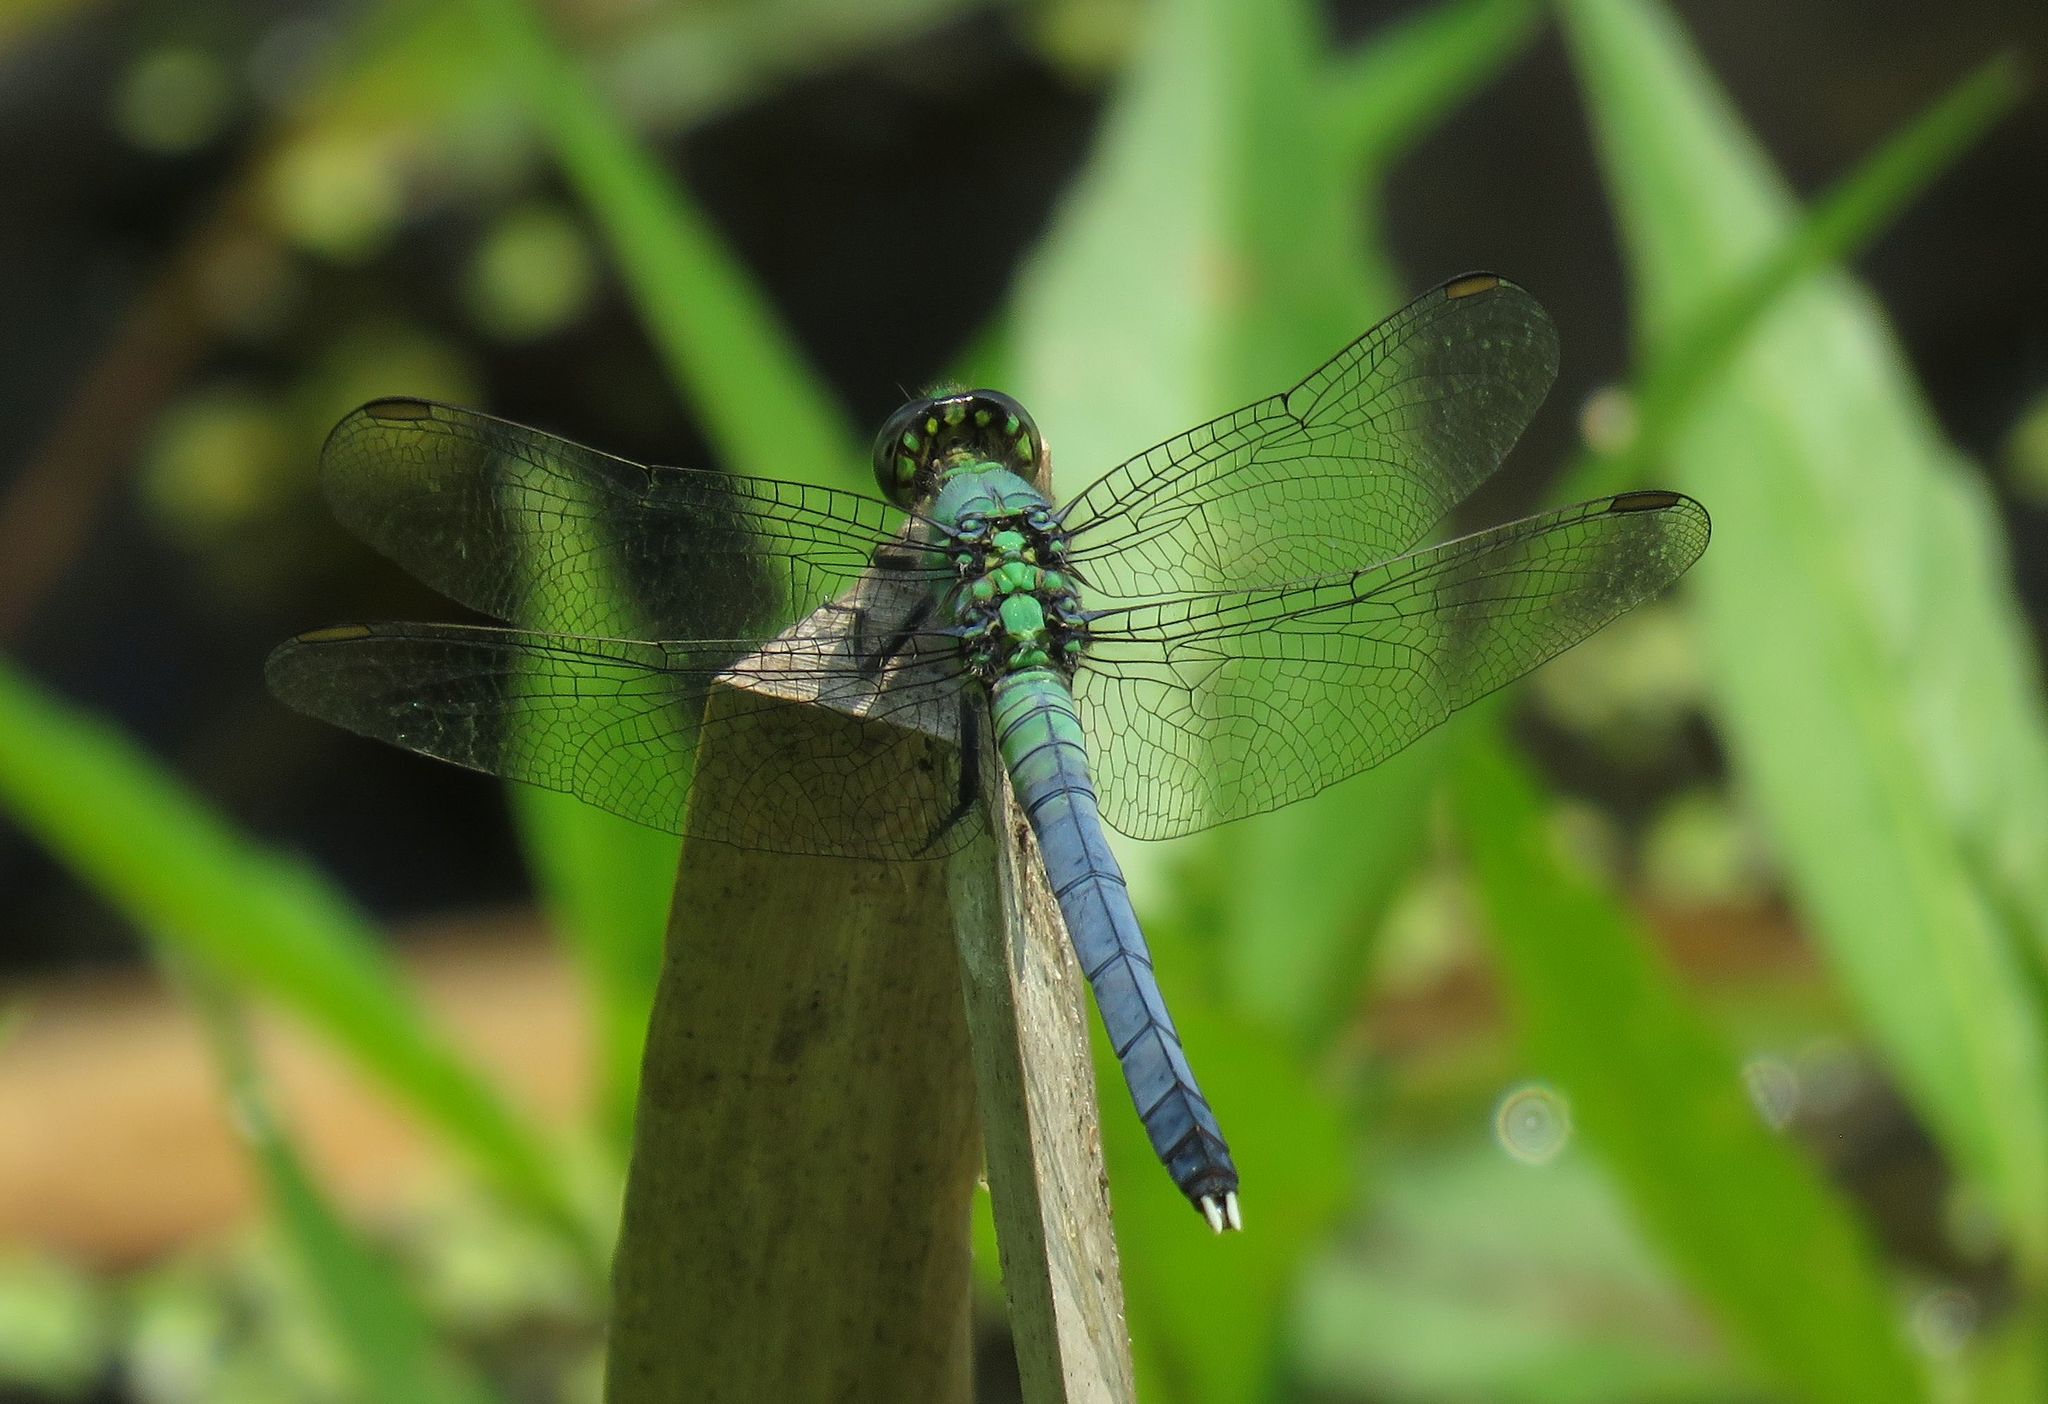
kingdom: Animalia
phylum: Arthropoda
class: Insecta
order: Odonata
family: Libellulidae
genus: Erythemis
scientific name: Erythemis simplicicollis
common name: Eastern pondhawk
